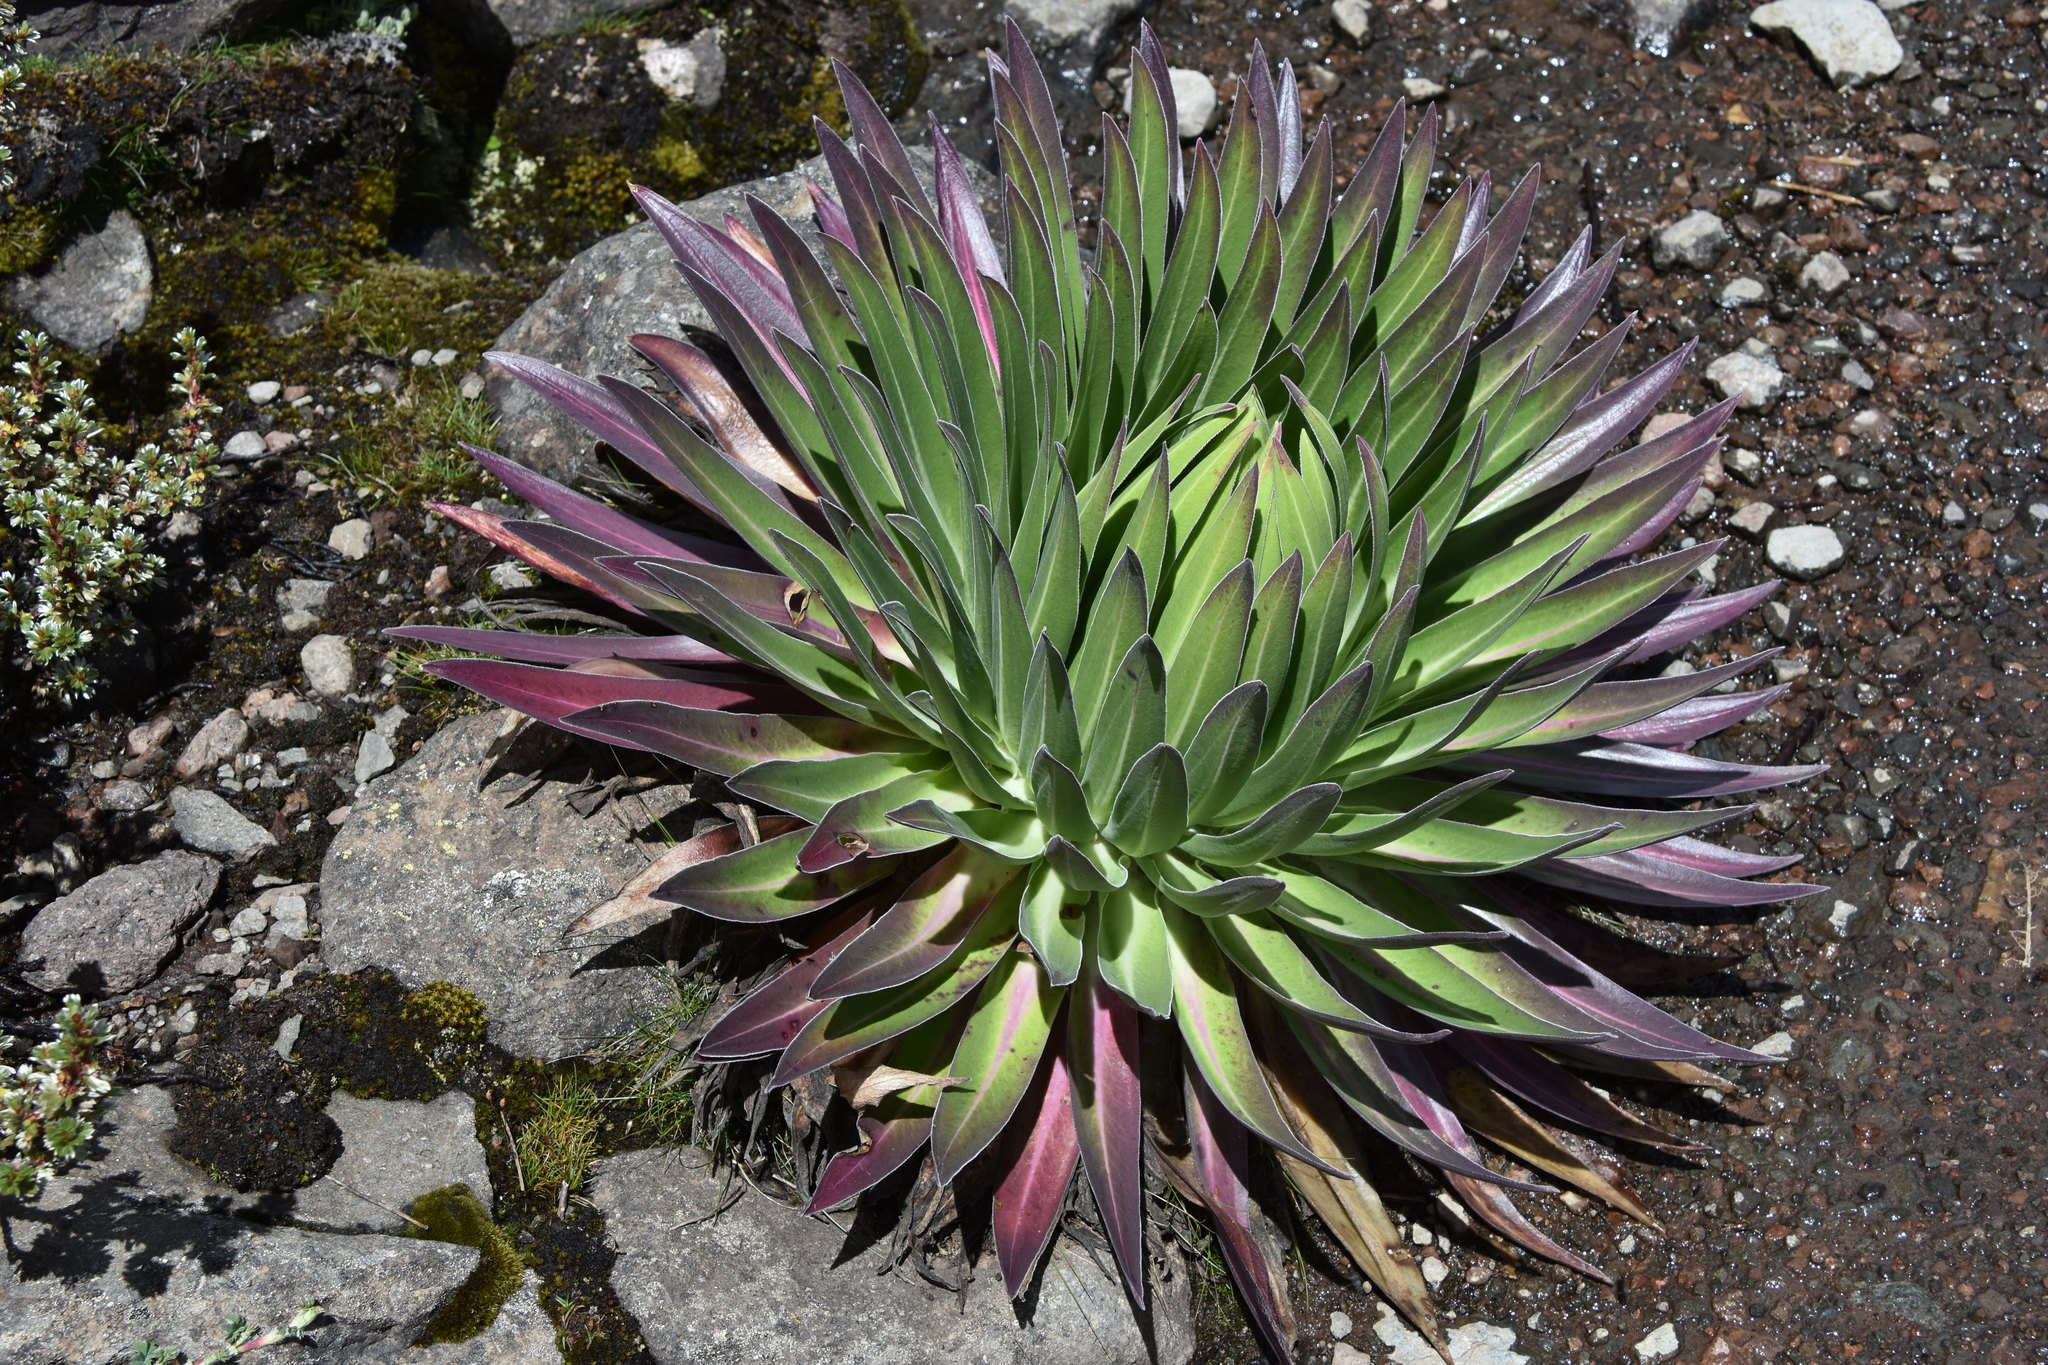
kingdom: Plantae
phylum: Tracheophyta
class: Magnoliopsida
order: Asterales
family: Campanulaceae
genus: Lobelia
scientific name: Lobelia gregoriana
